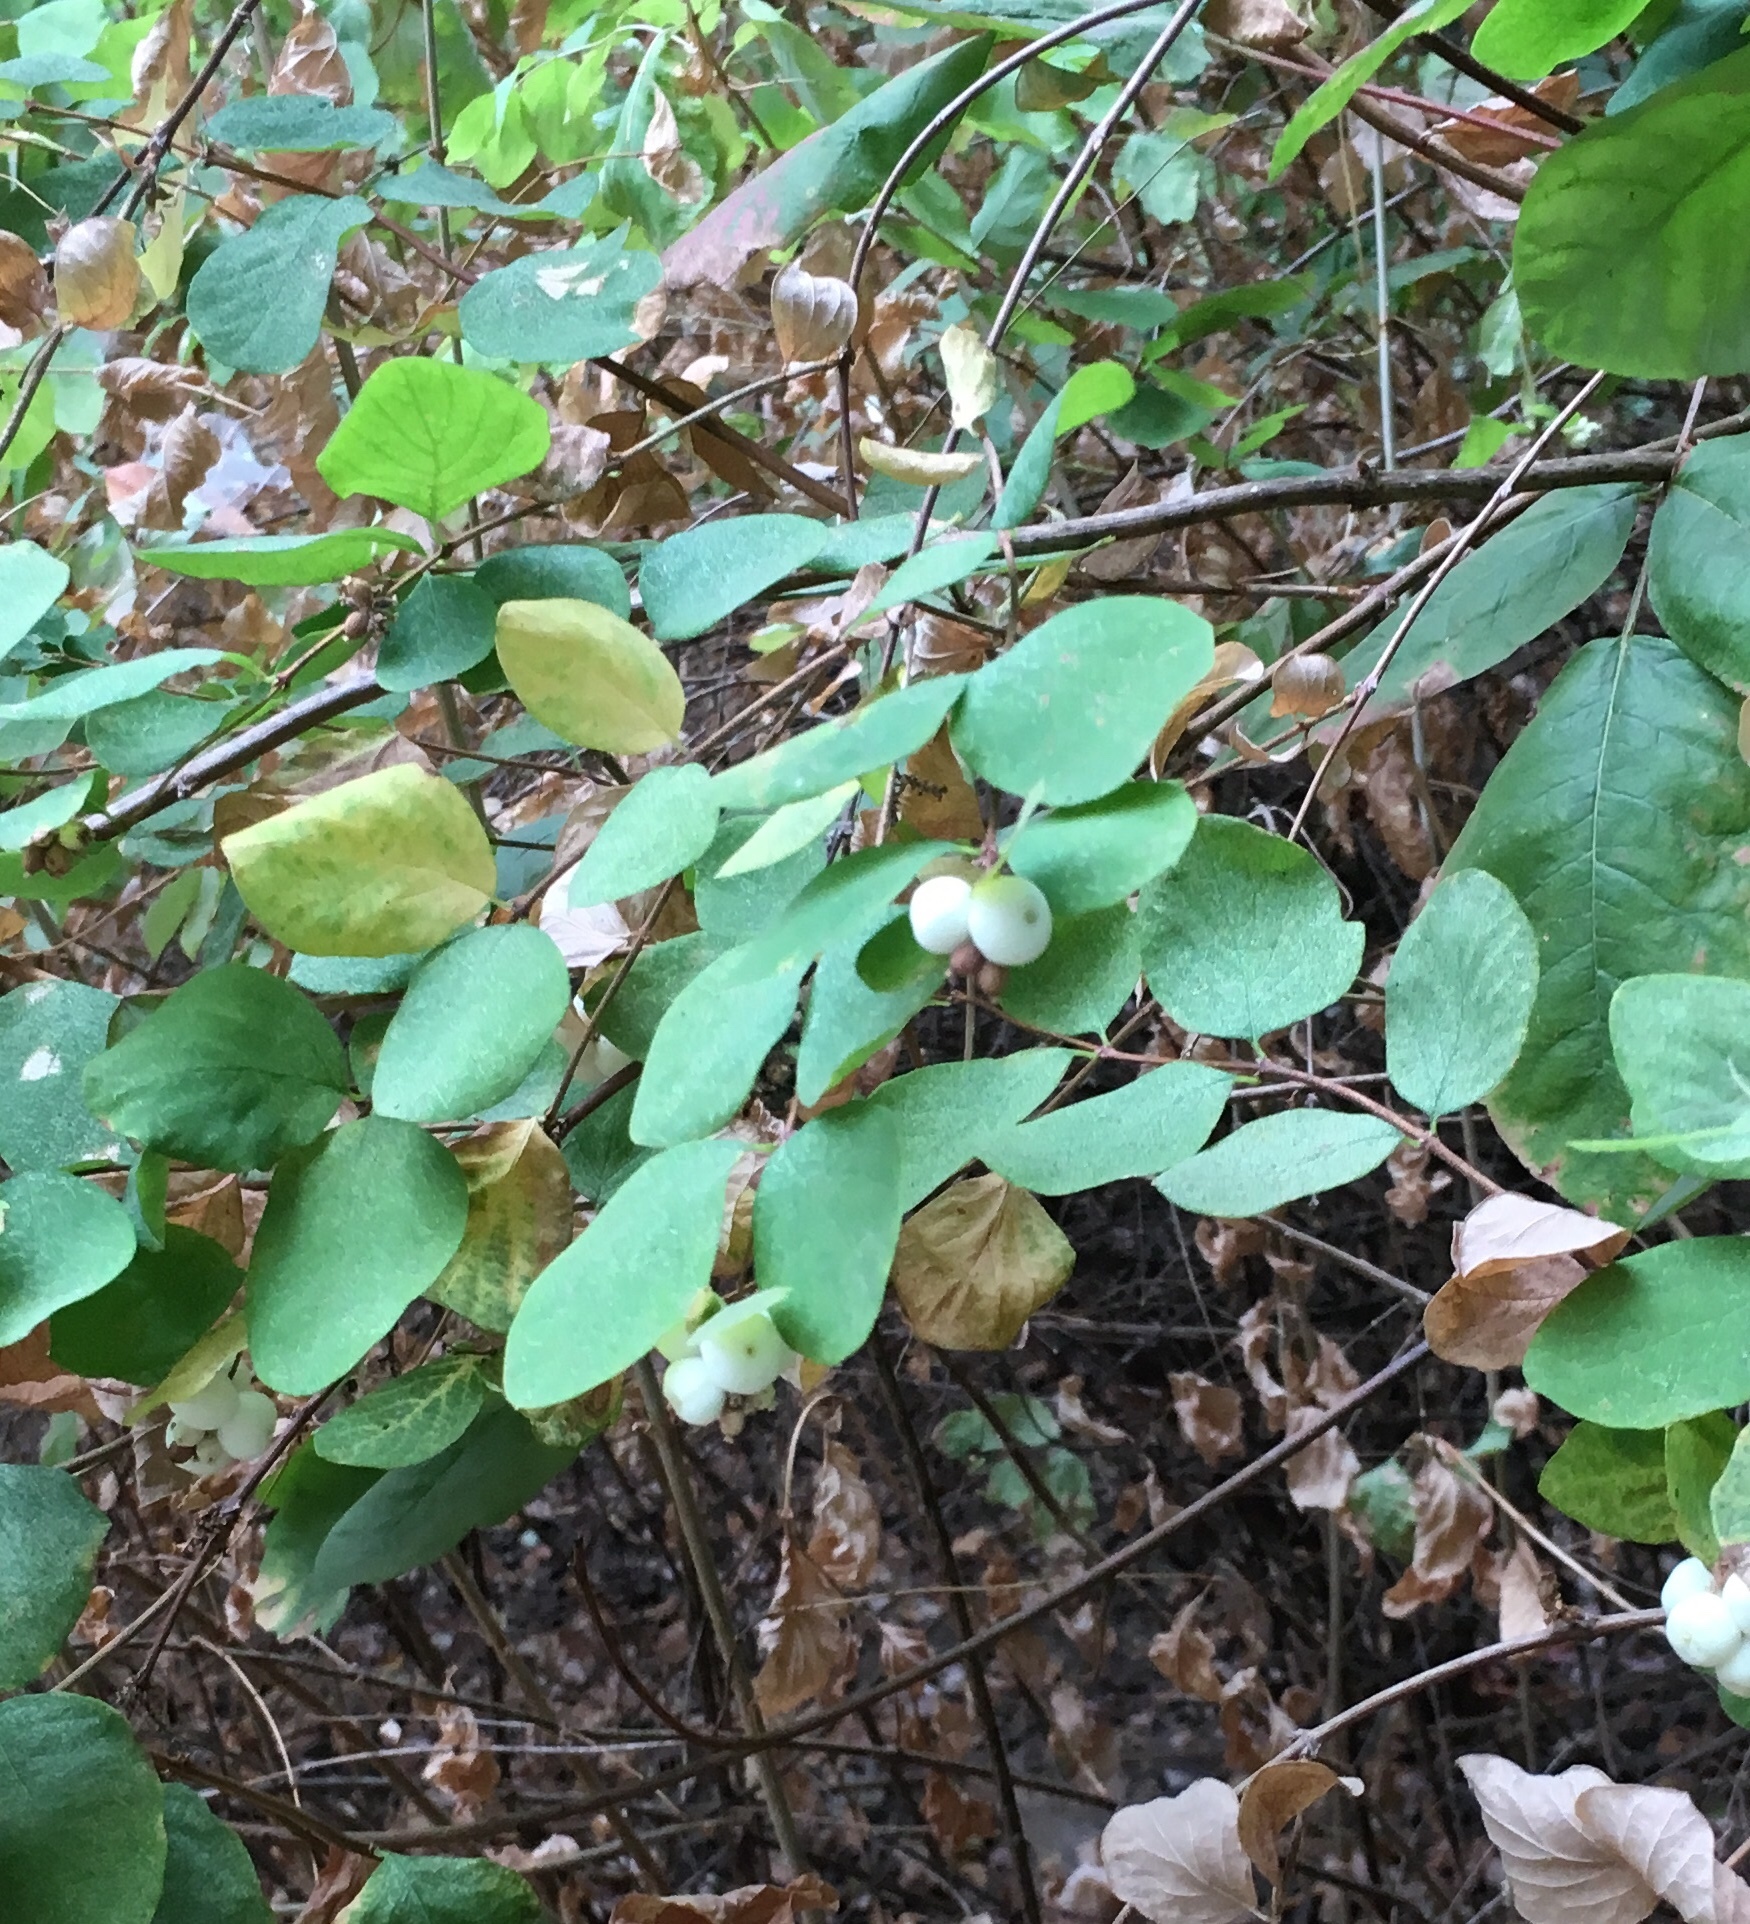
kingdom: Plantae
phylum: Tracheophyta
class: Magnoliopsida
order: Dipsacales
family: Caprifoliaceae
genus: Symphoricarpos
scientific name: Symphoricarpos albus
